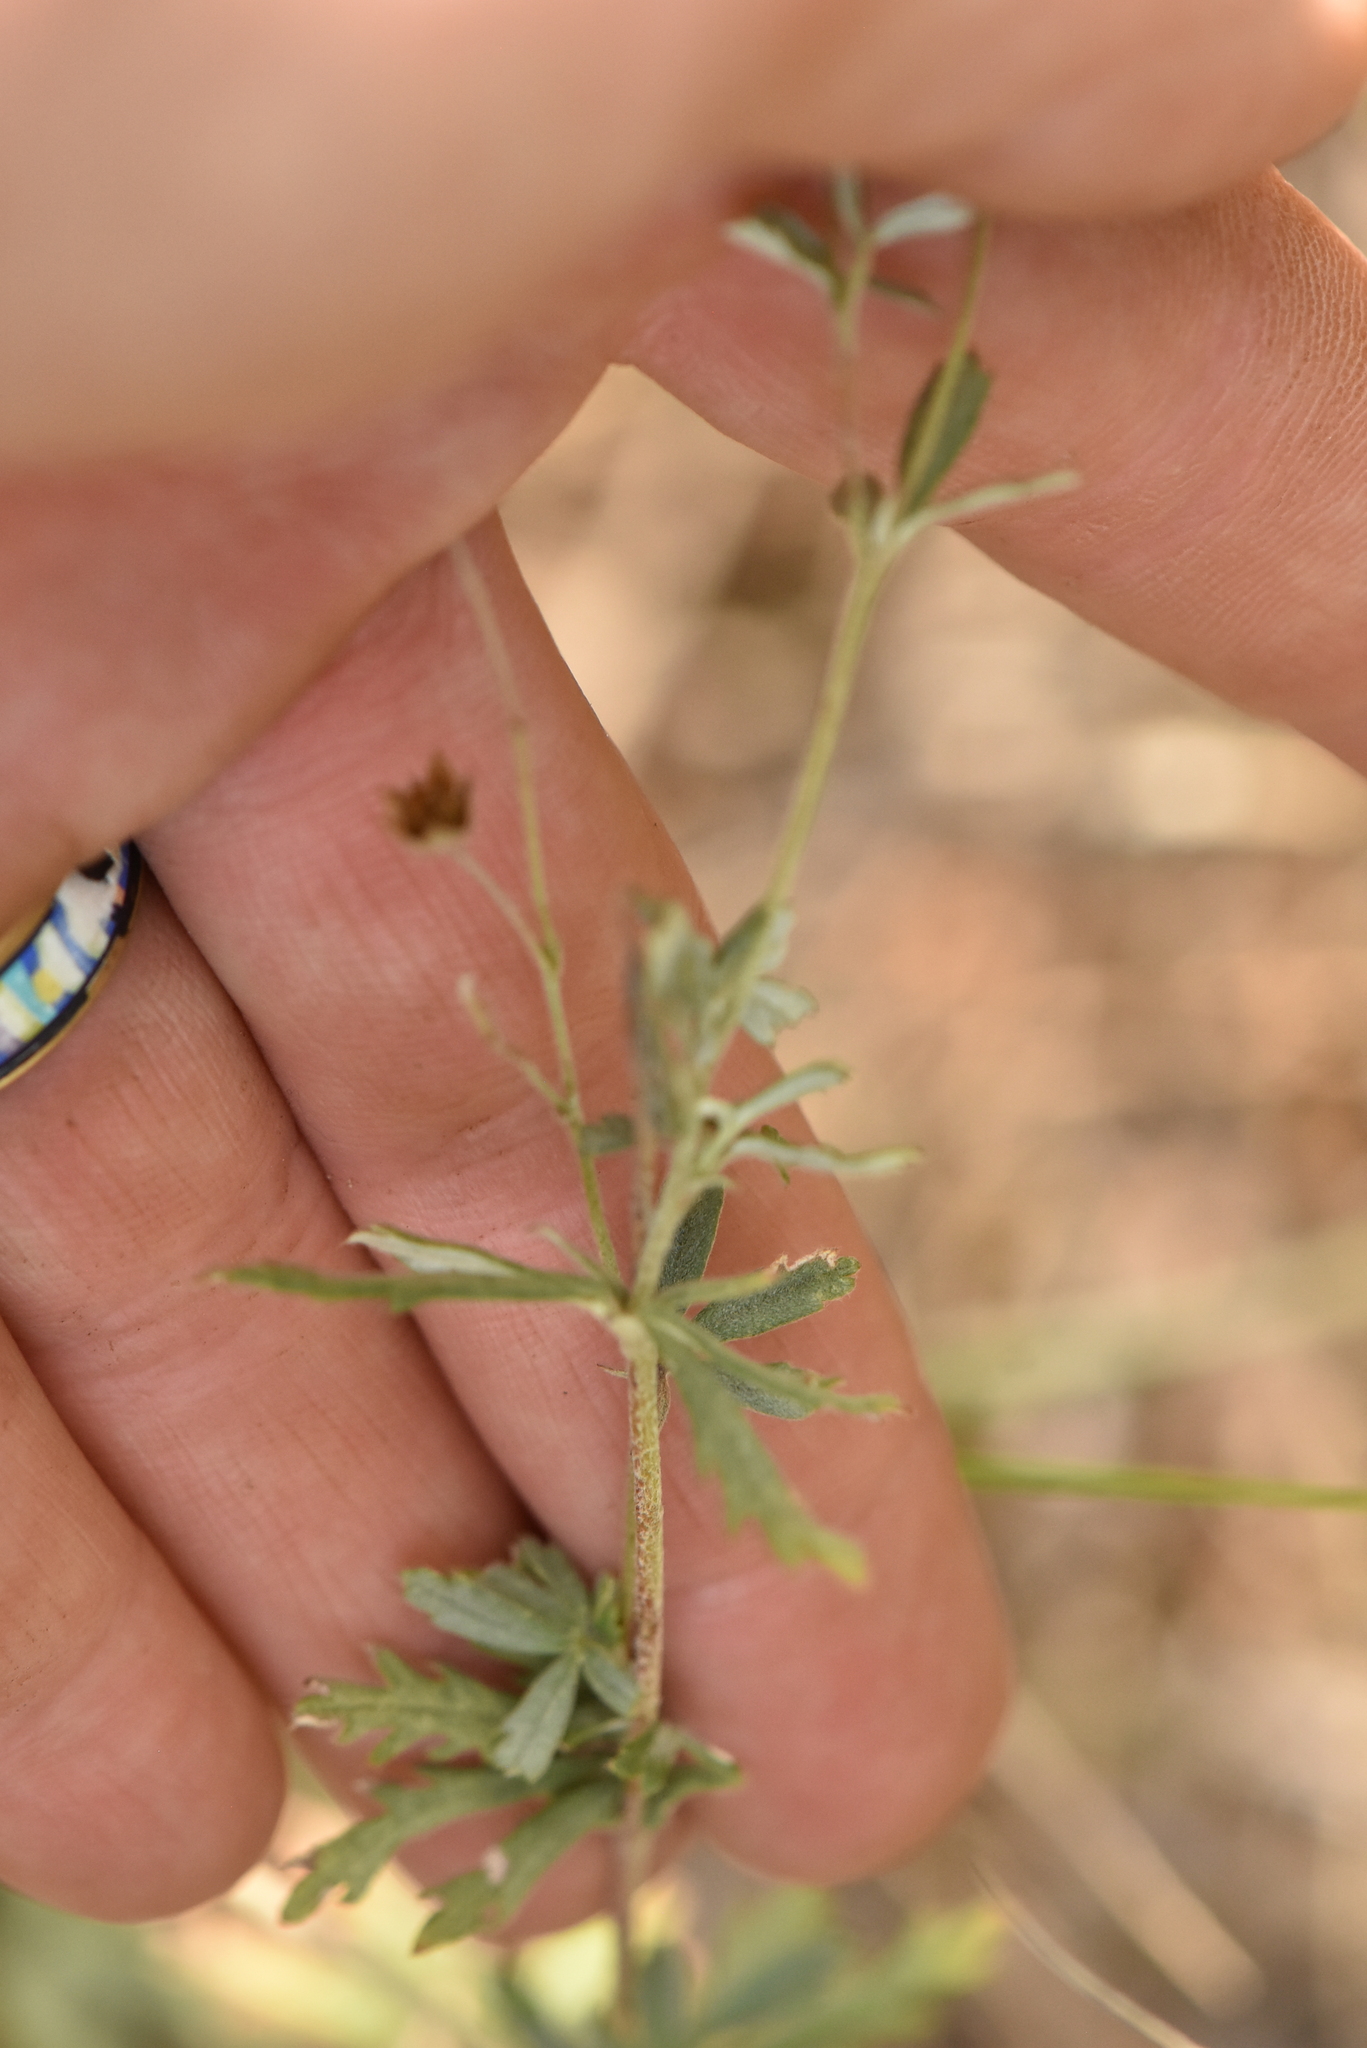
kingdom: Plantae
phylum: Tracheophyta
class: Magnoliopsida
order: Rosales
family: Rosaceae
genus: Potentilla
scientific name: Potentilla argentea
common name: Hoary cinquefoil
